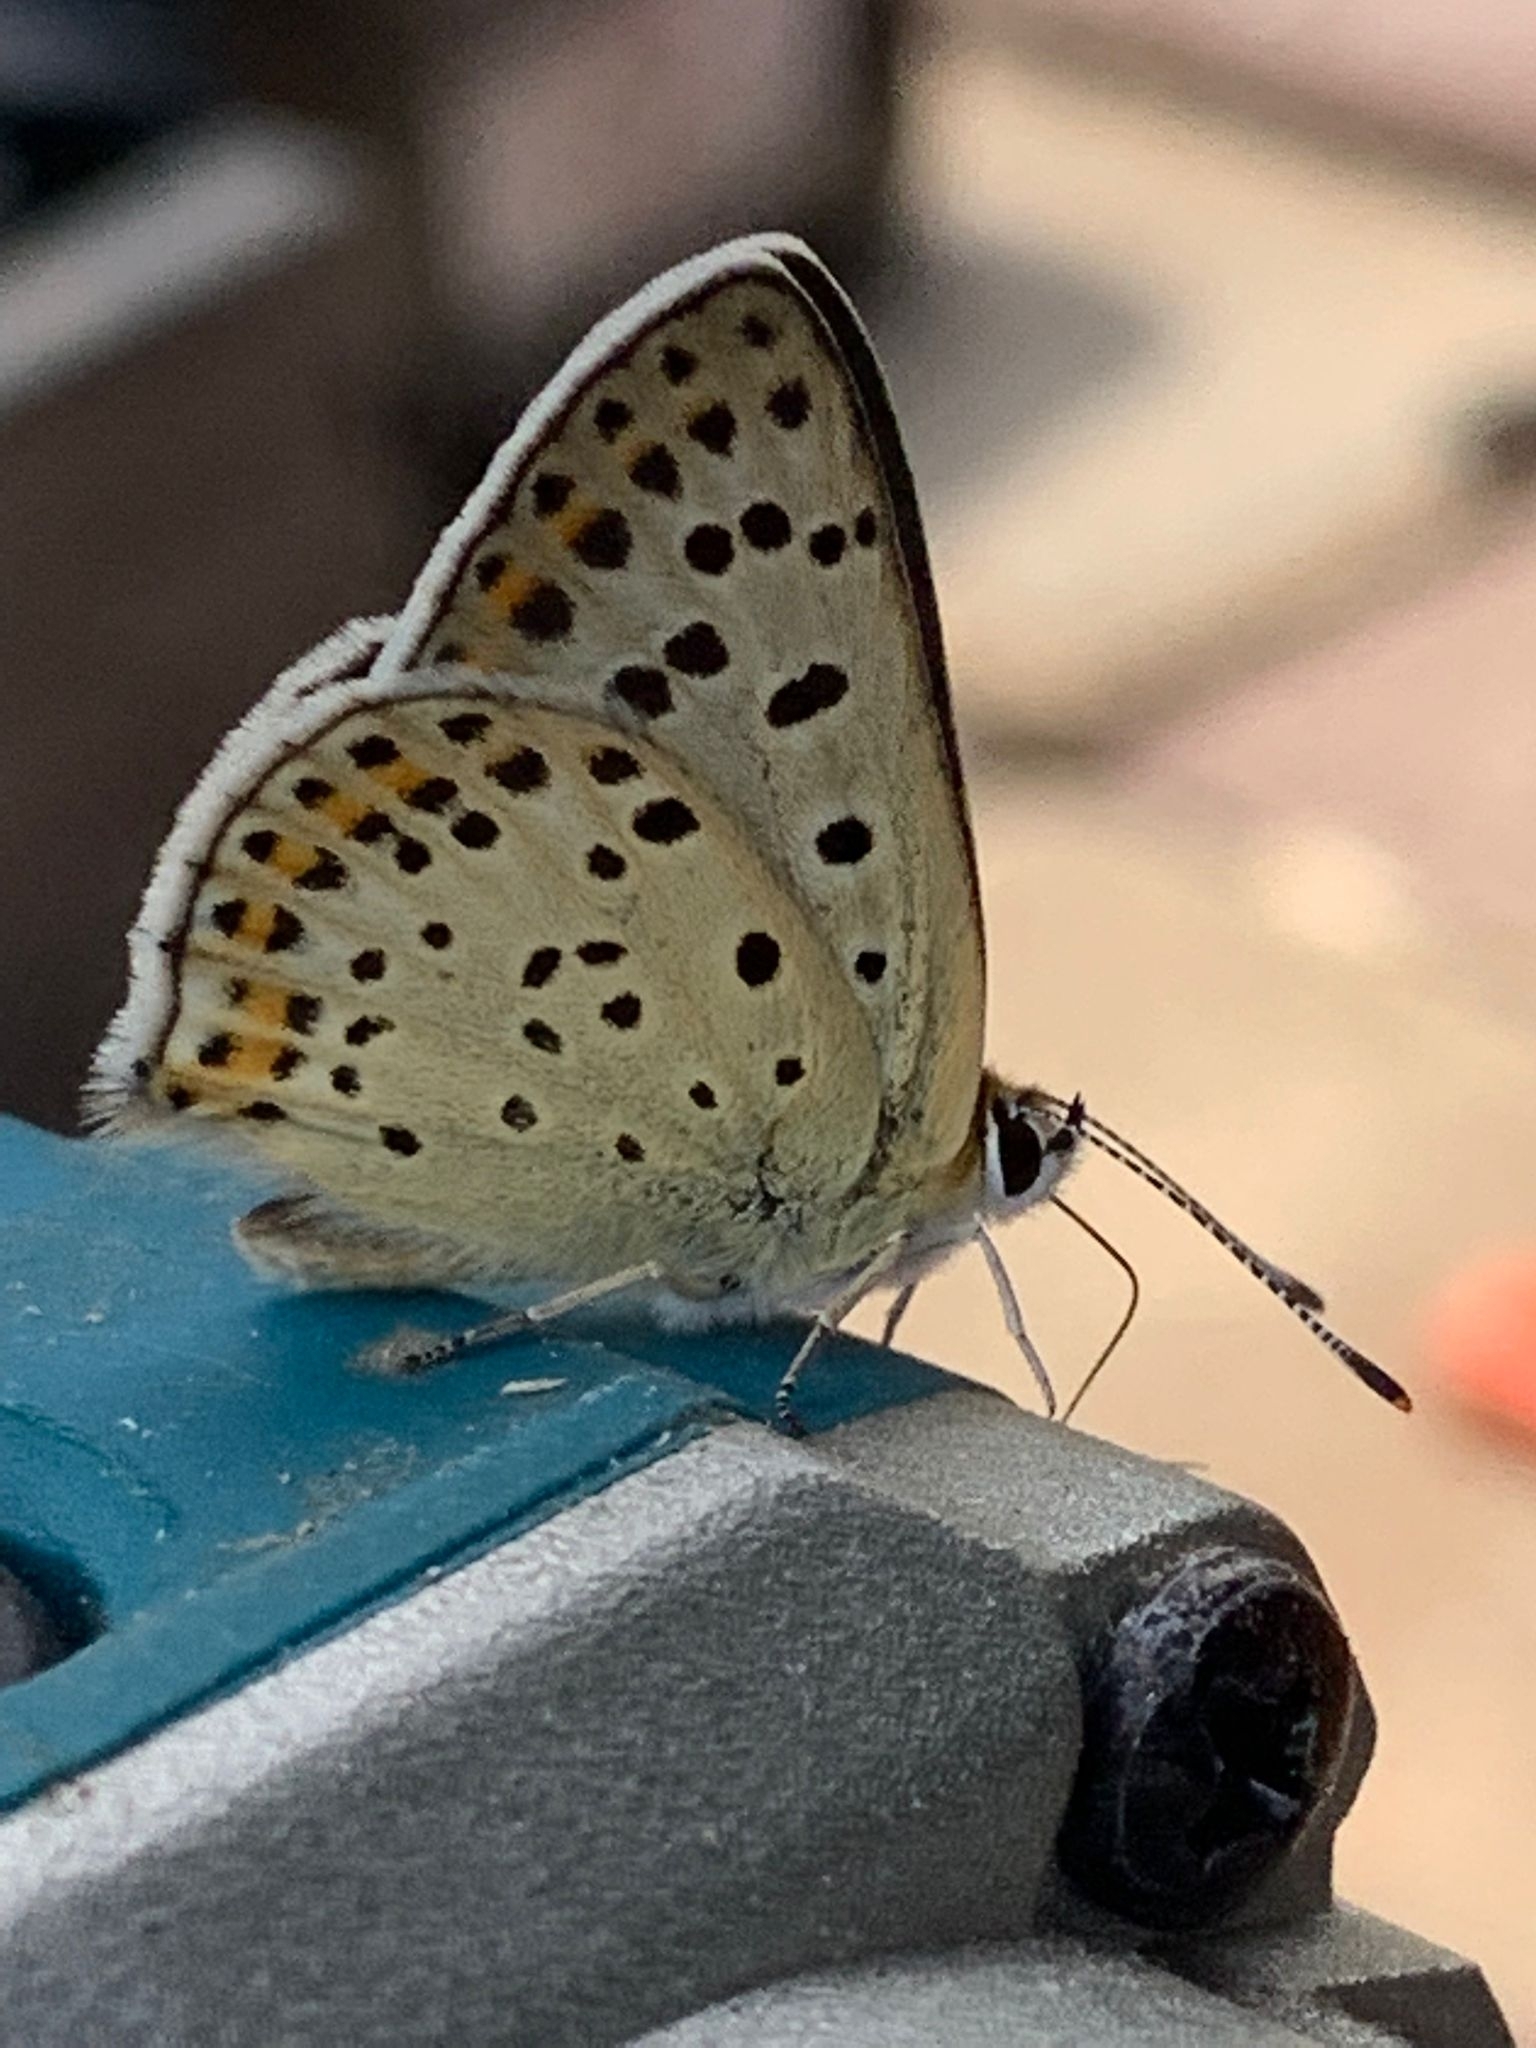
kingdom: Animalia
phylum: Arthropoda
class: Insecta
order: Lepidoptera
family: Lycaenidae
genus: Loweia
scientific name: Loweia tityrus
